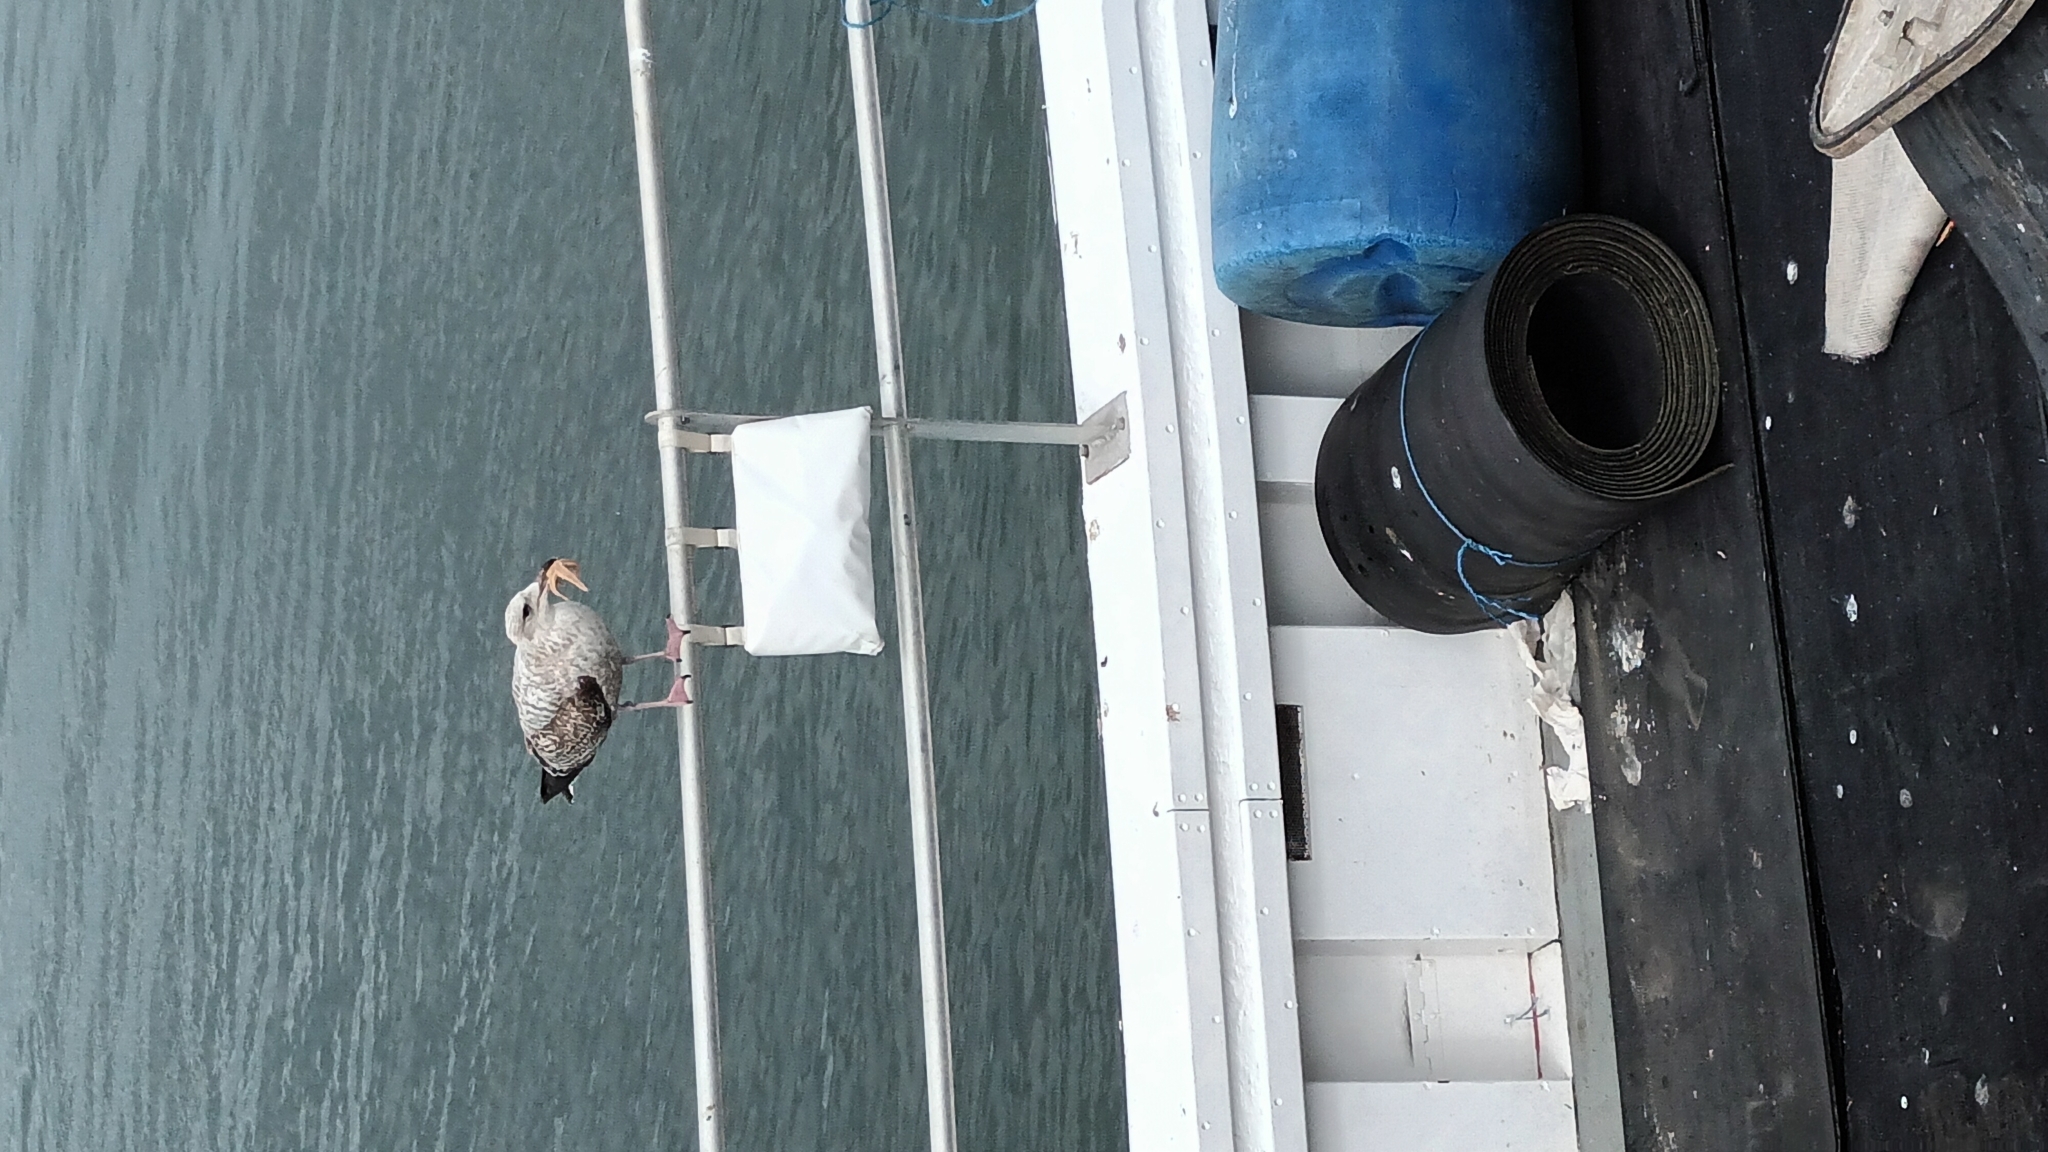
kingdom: Animalia
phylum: Chordata
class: Aves
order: Charadriiformes
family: Laridae
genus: Larus
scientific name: Larus argentatus
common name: Herring gull
